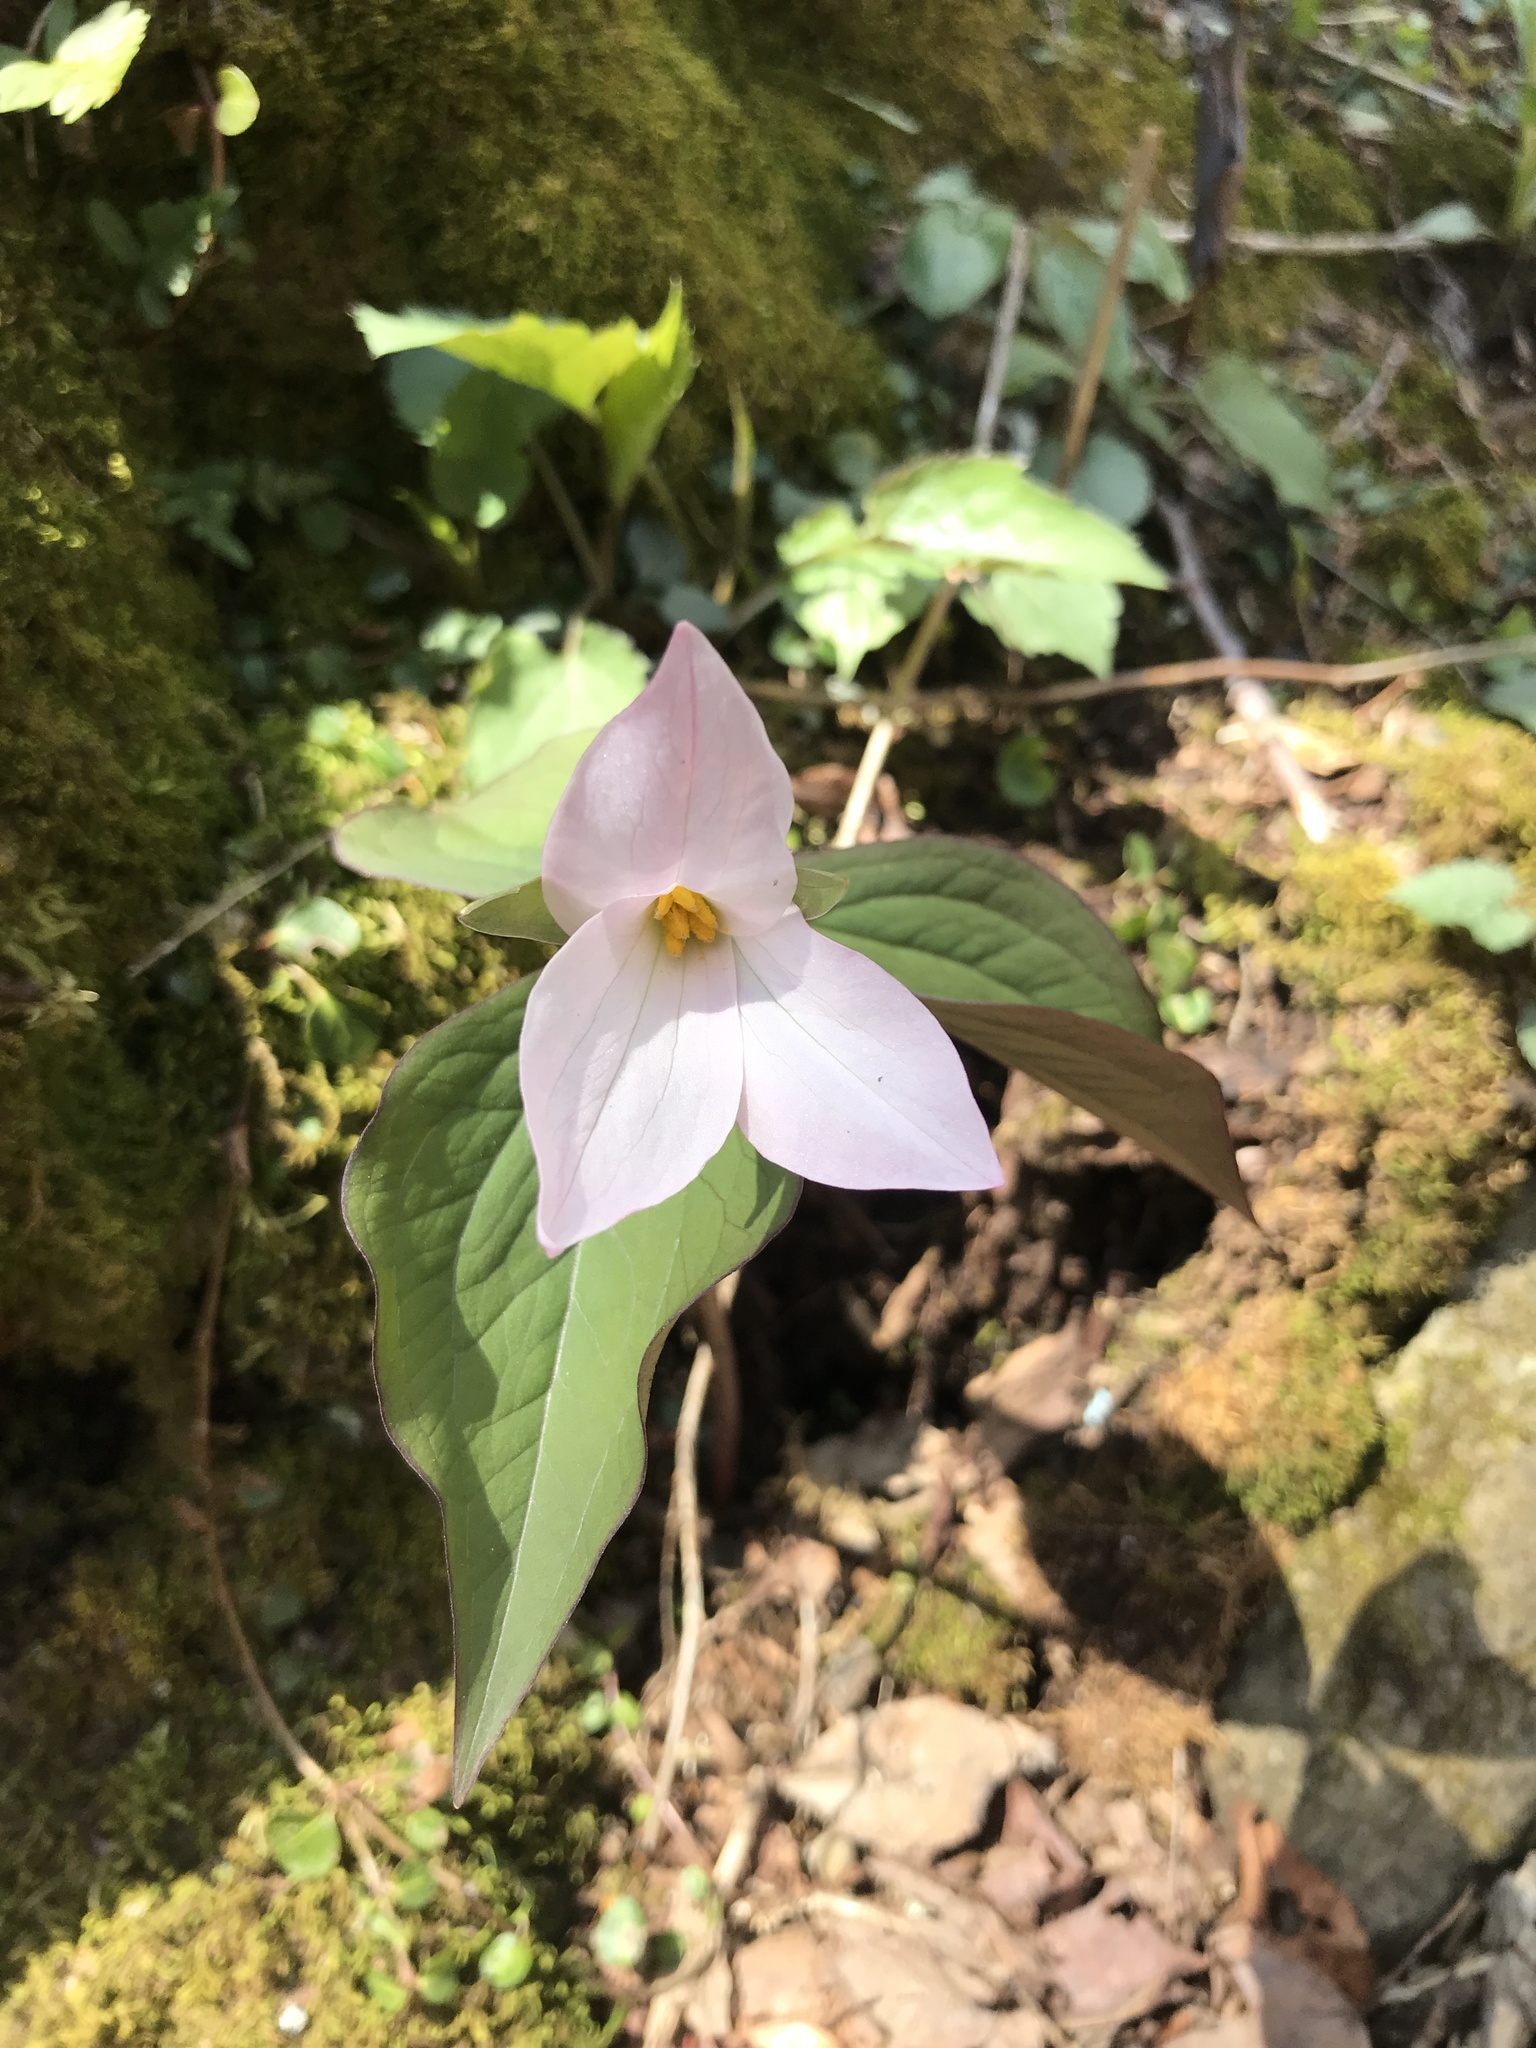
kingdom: Plantae
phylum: Tracheophyta
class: Liliopsida
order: Liliales
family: Melanthiaceae
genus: Trillium
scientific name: Trillium grandiflorum
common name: Great white trillium
